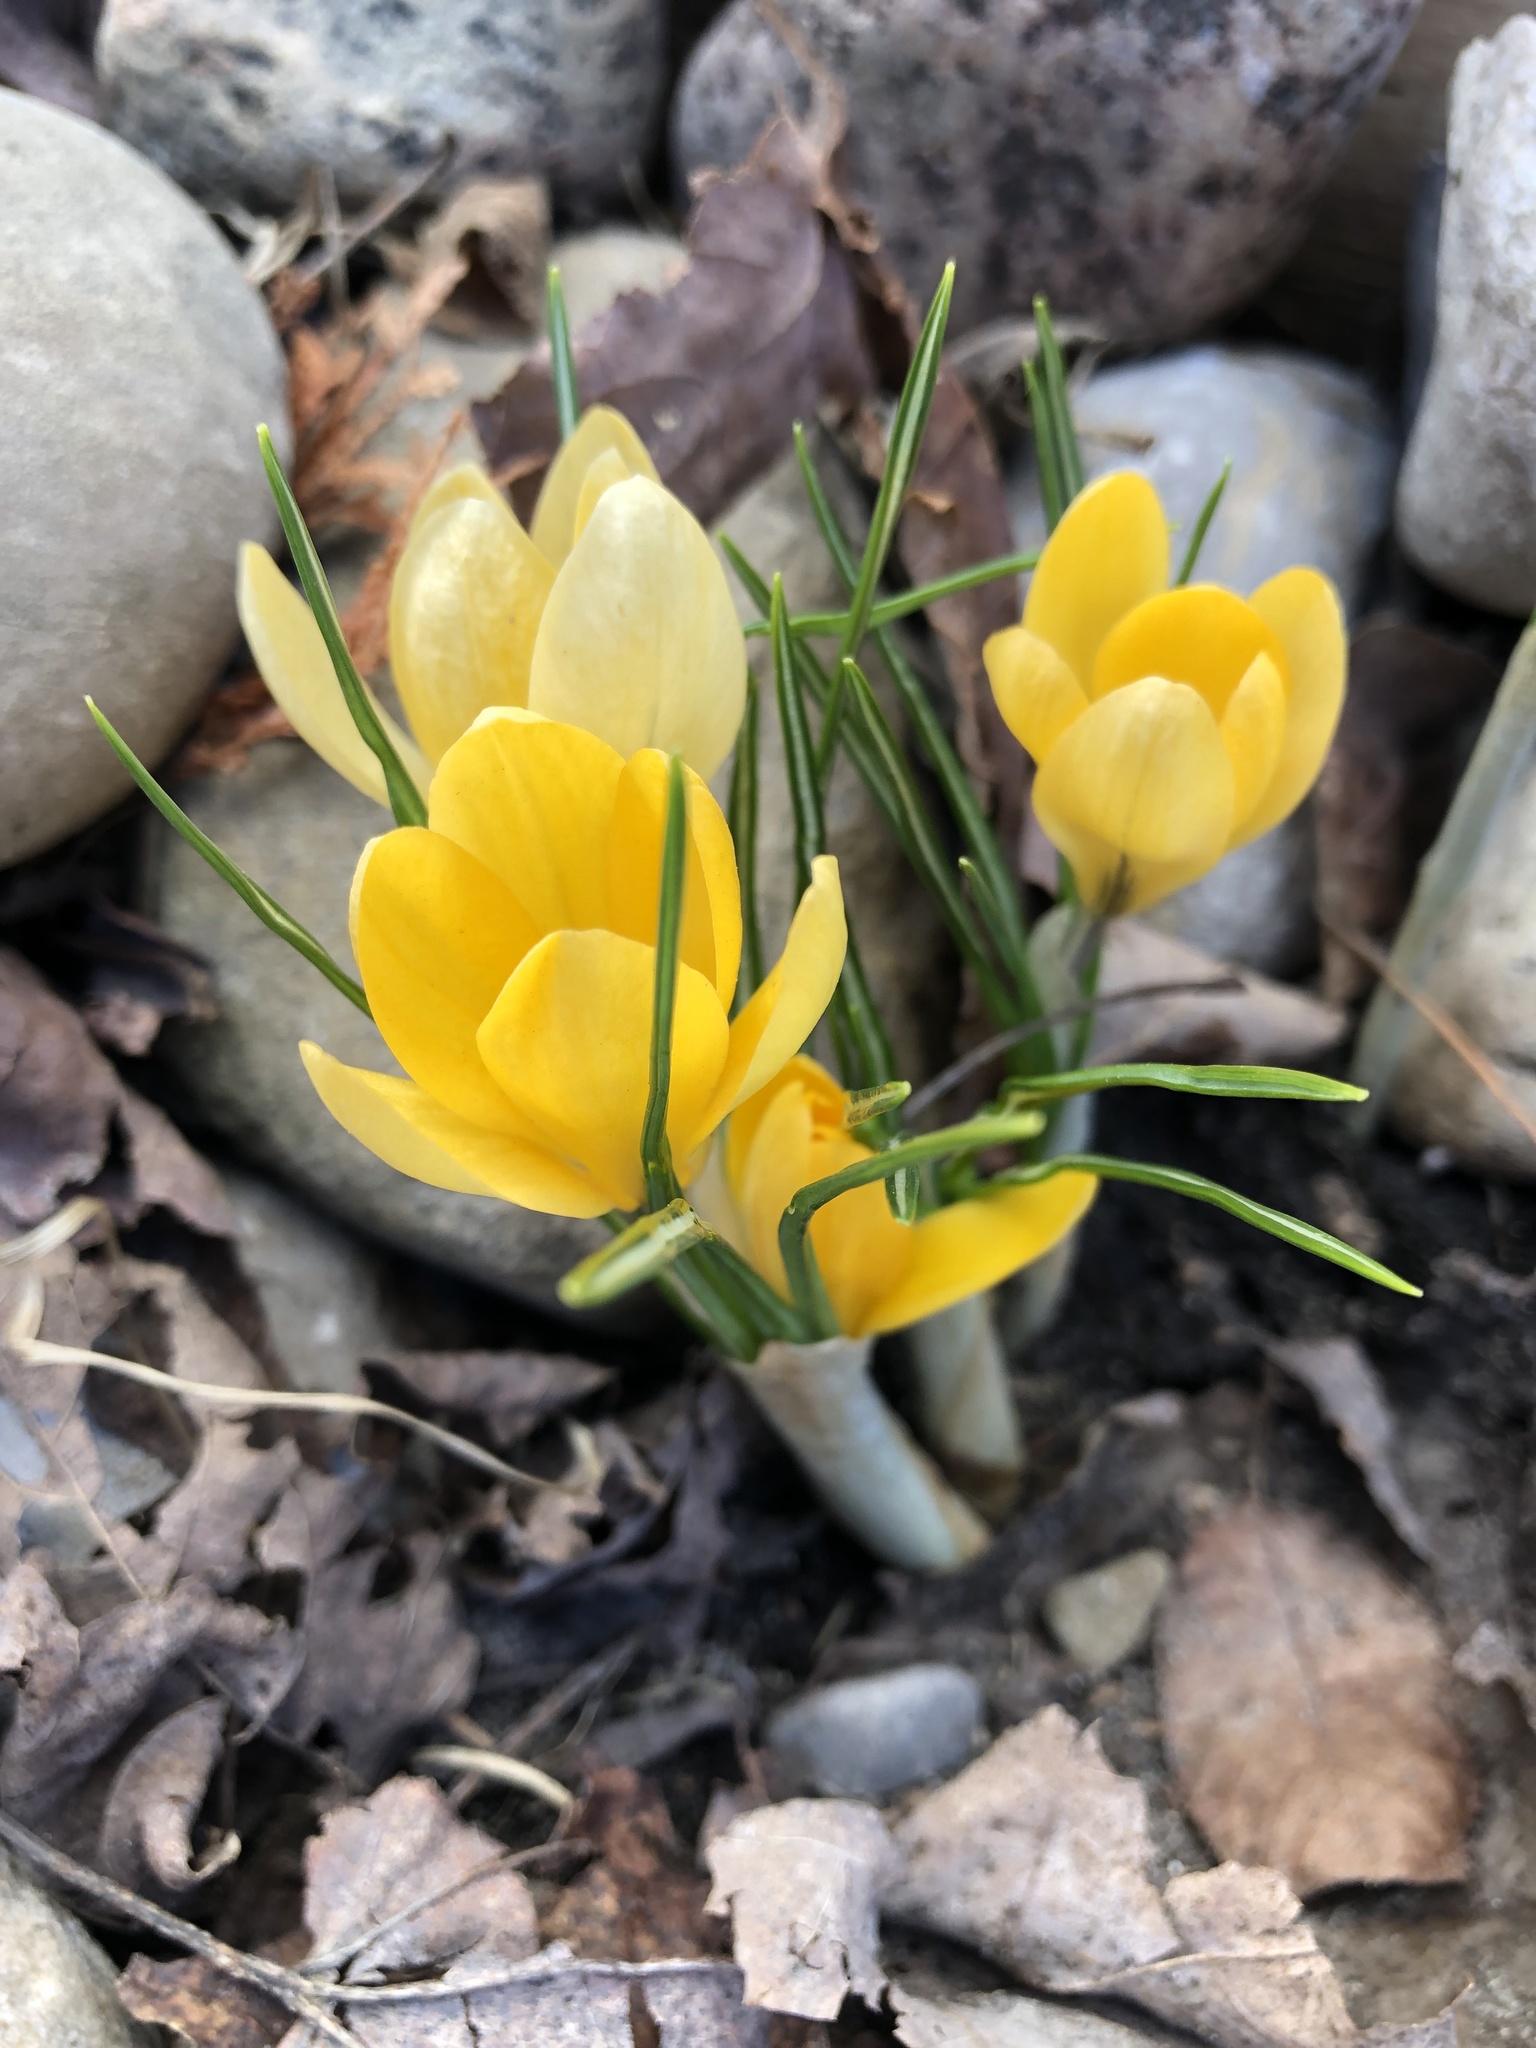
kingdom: Plantae
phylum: Tracheophyta
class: Liliopsida
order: Asparagales
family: Iridaceae
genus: Crocus
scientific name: Crocus chrysanthus
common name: Golden crocus
